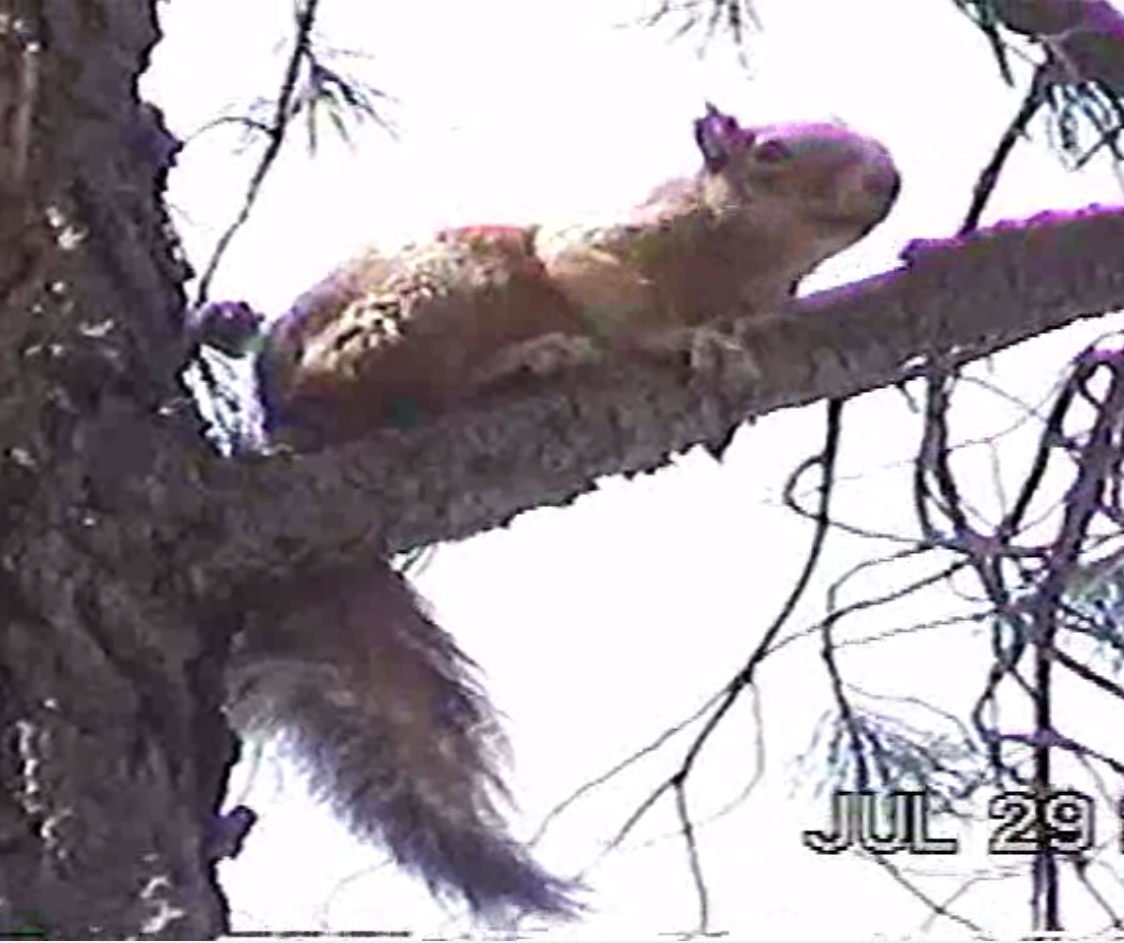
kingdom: Animalia
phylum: Chordata
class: Mammalia
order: Rodentia
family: Sciuridae
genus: Sciurus
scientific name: Sciurus nayaritensis
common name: Mexican fox squirrel
